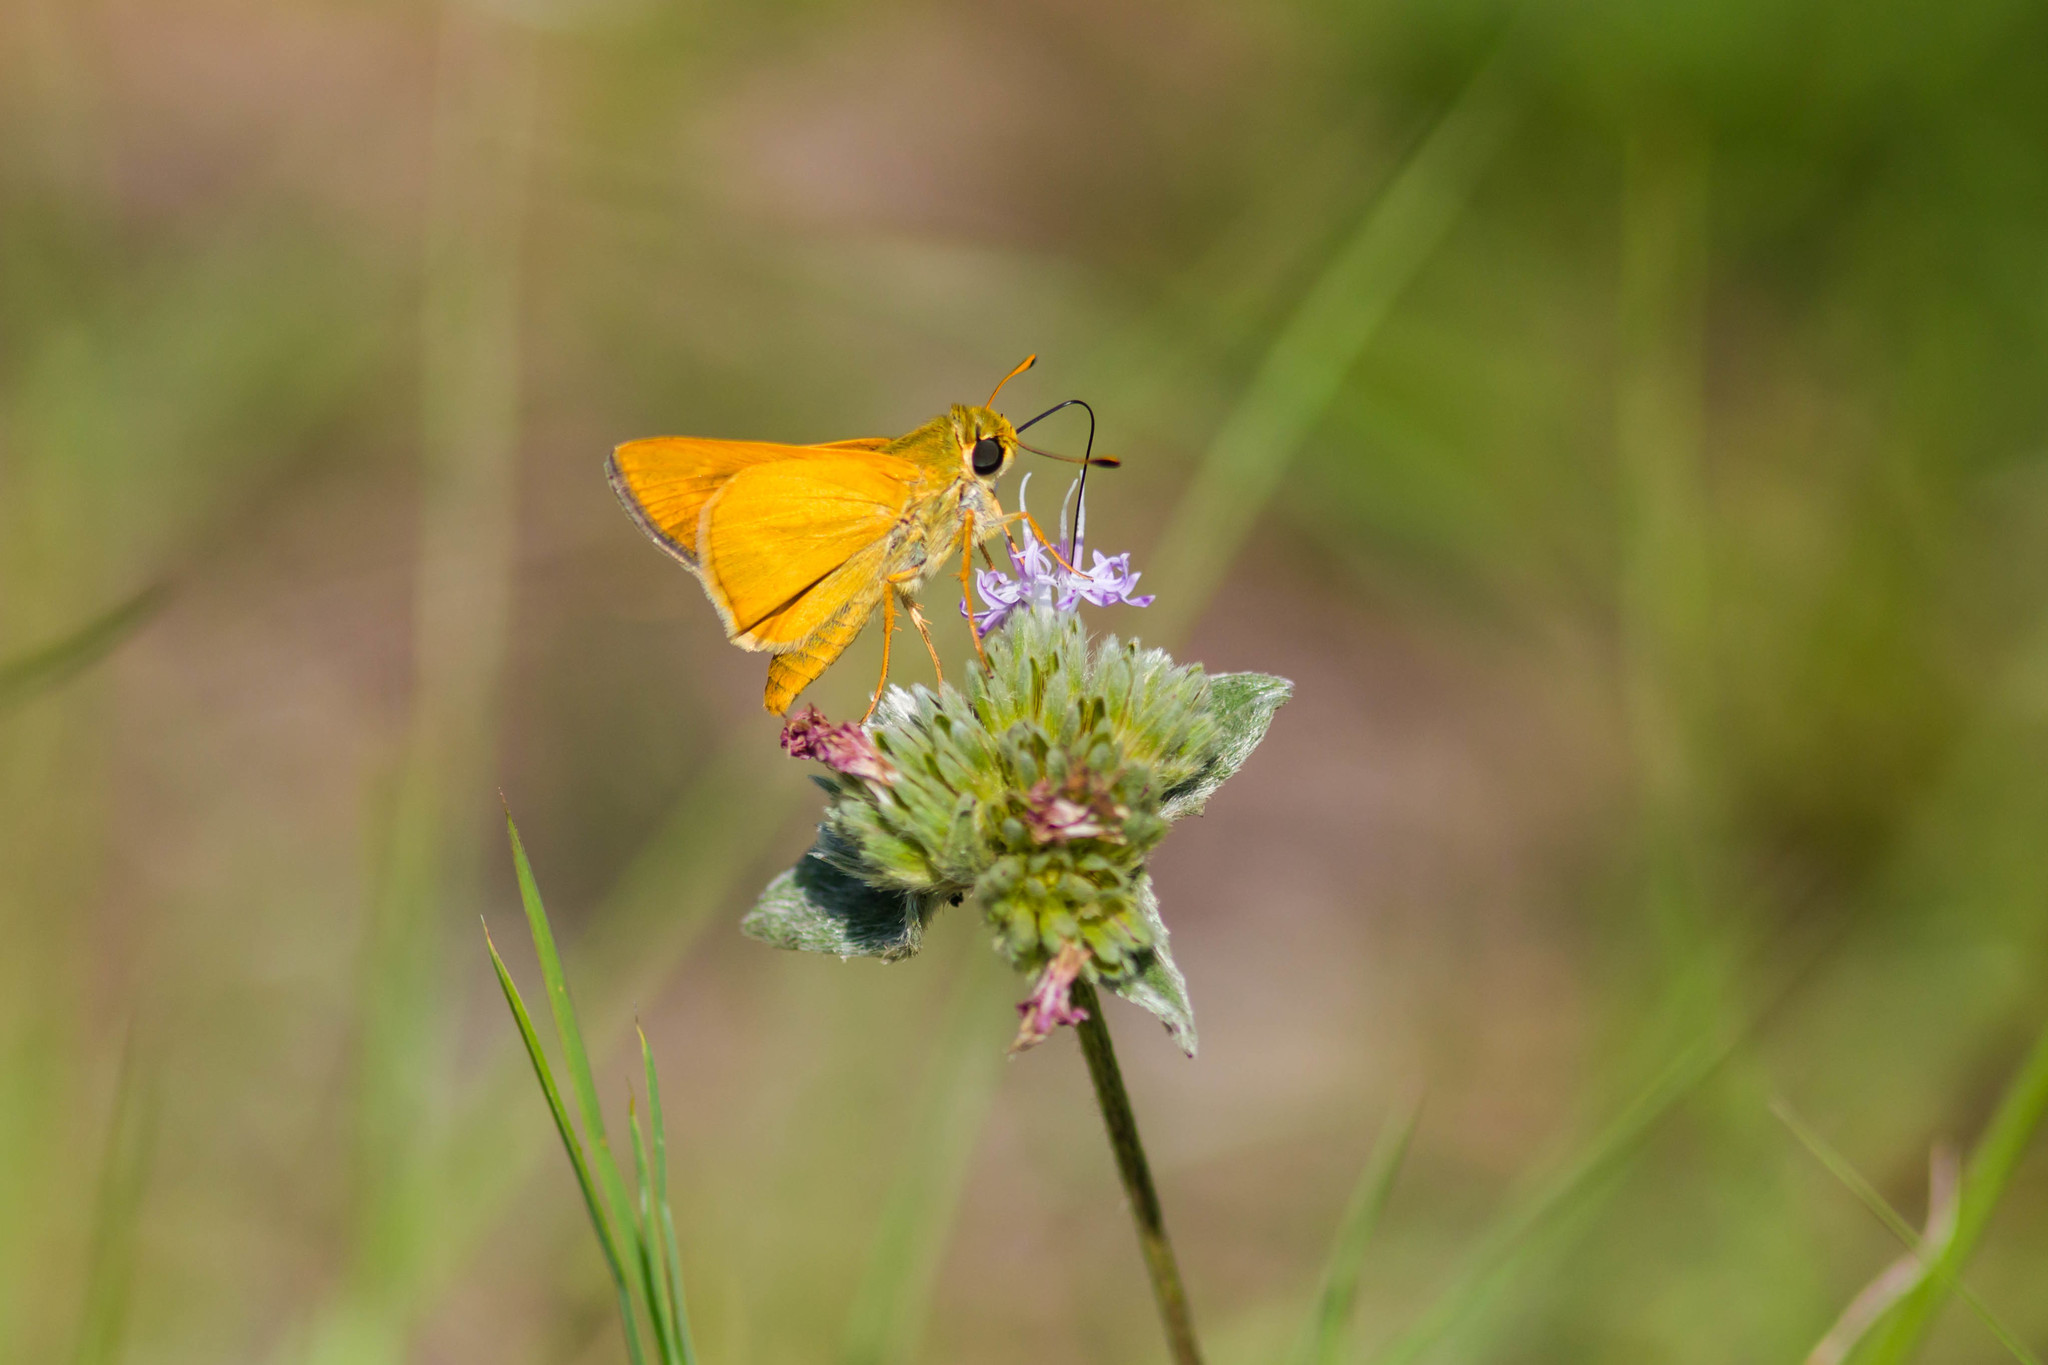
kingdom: Animalia
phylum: Arthropoda
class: Insecta
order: Lepidoptera
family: Hesperiidae
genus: Atrytone
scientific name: Atrytone delaware
